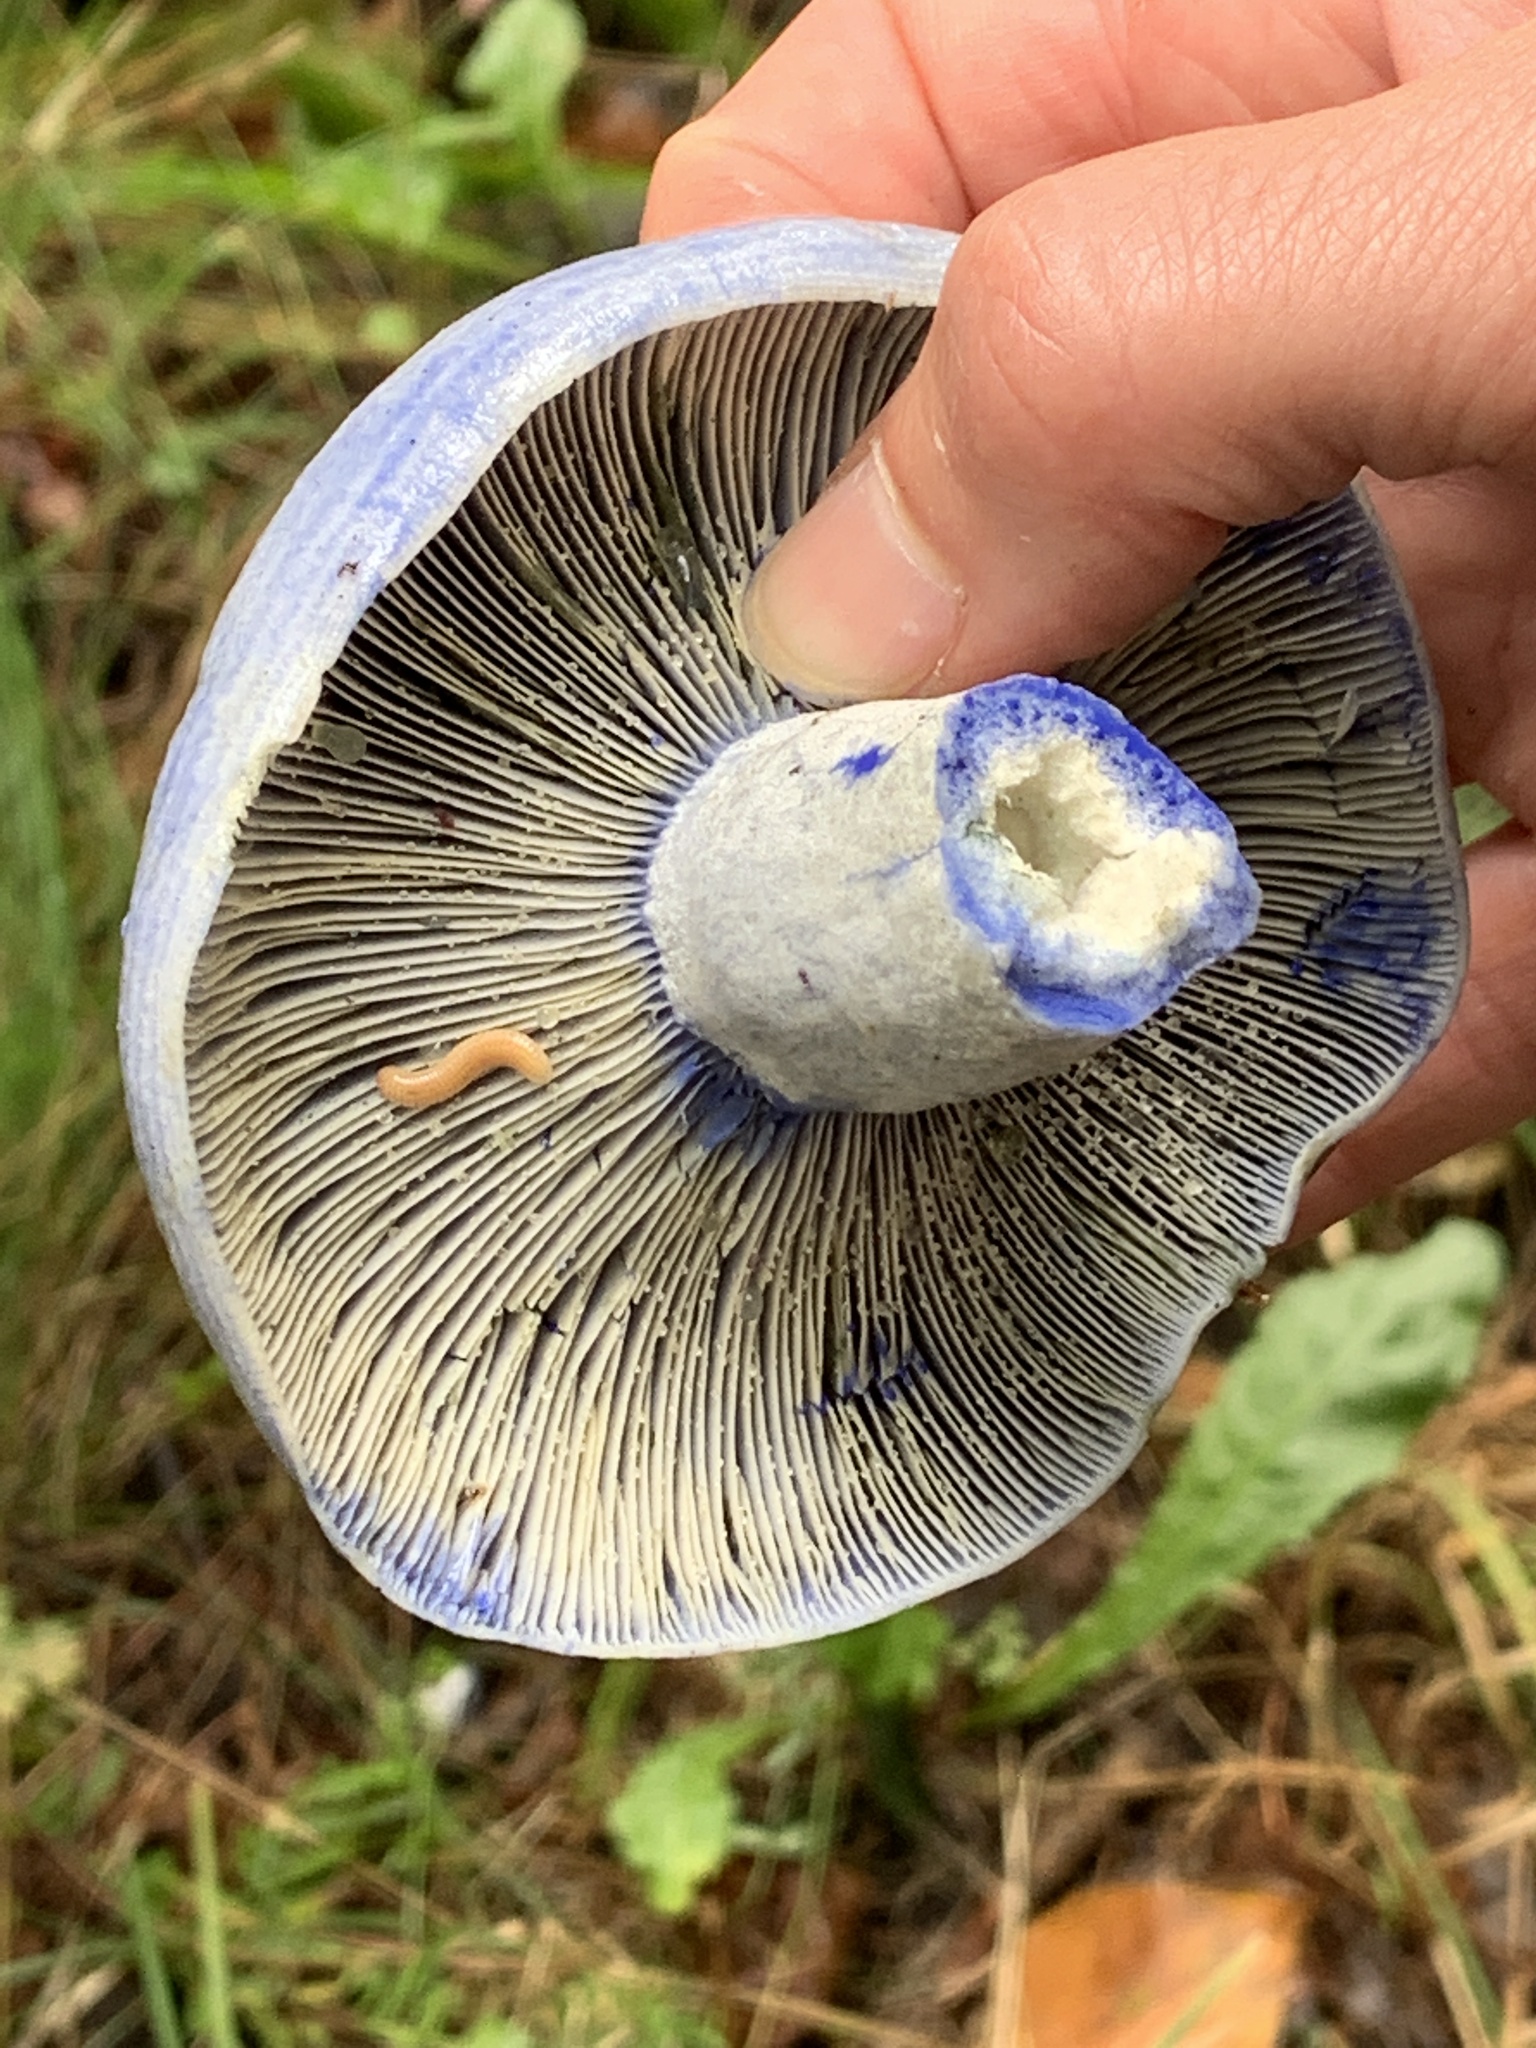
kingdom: Fungi
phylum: Basidiomycota
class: Agaricomycetes
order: Russulales
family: Russulaceae
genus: Lactarius
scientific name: Lactarius indigo
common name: Indigo milk cap
